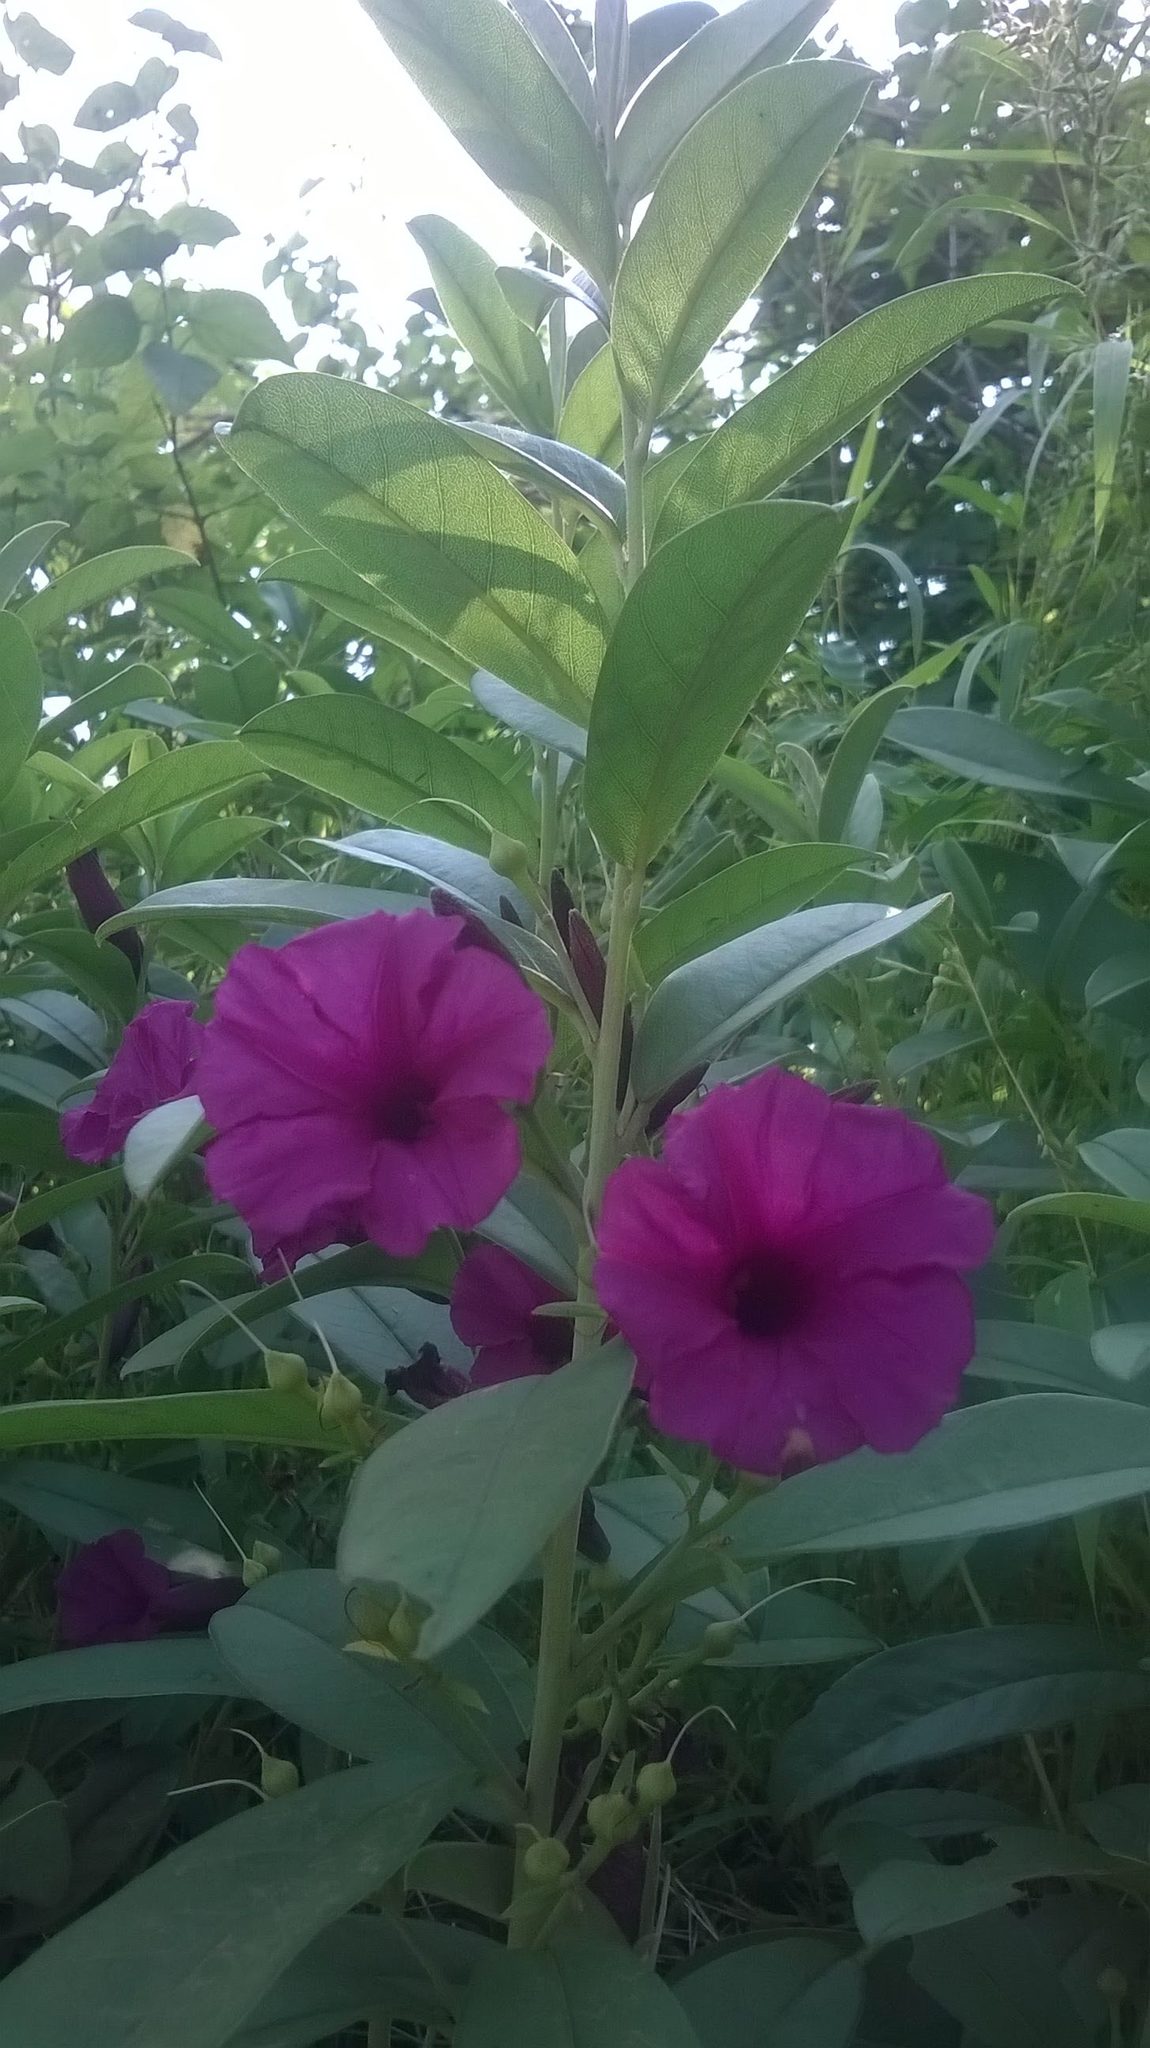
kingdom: Plantae
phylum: Tracheophyta
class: Magnoliopsida
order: Solanales
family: Convolvulaceae
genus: Argyreia
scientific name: Argyreia cuneata
